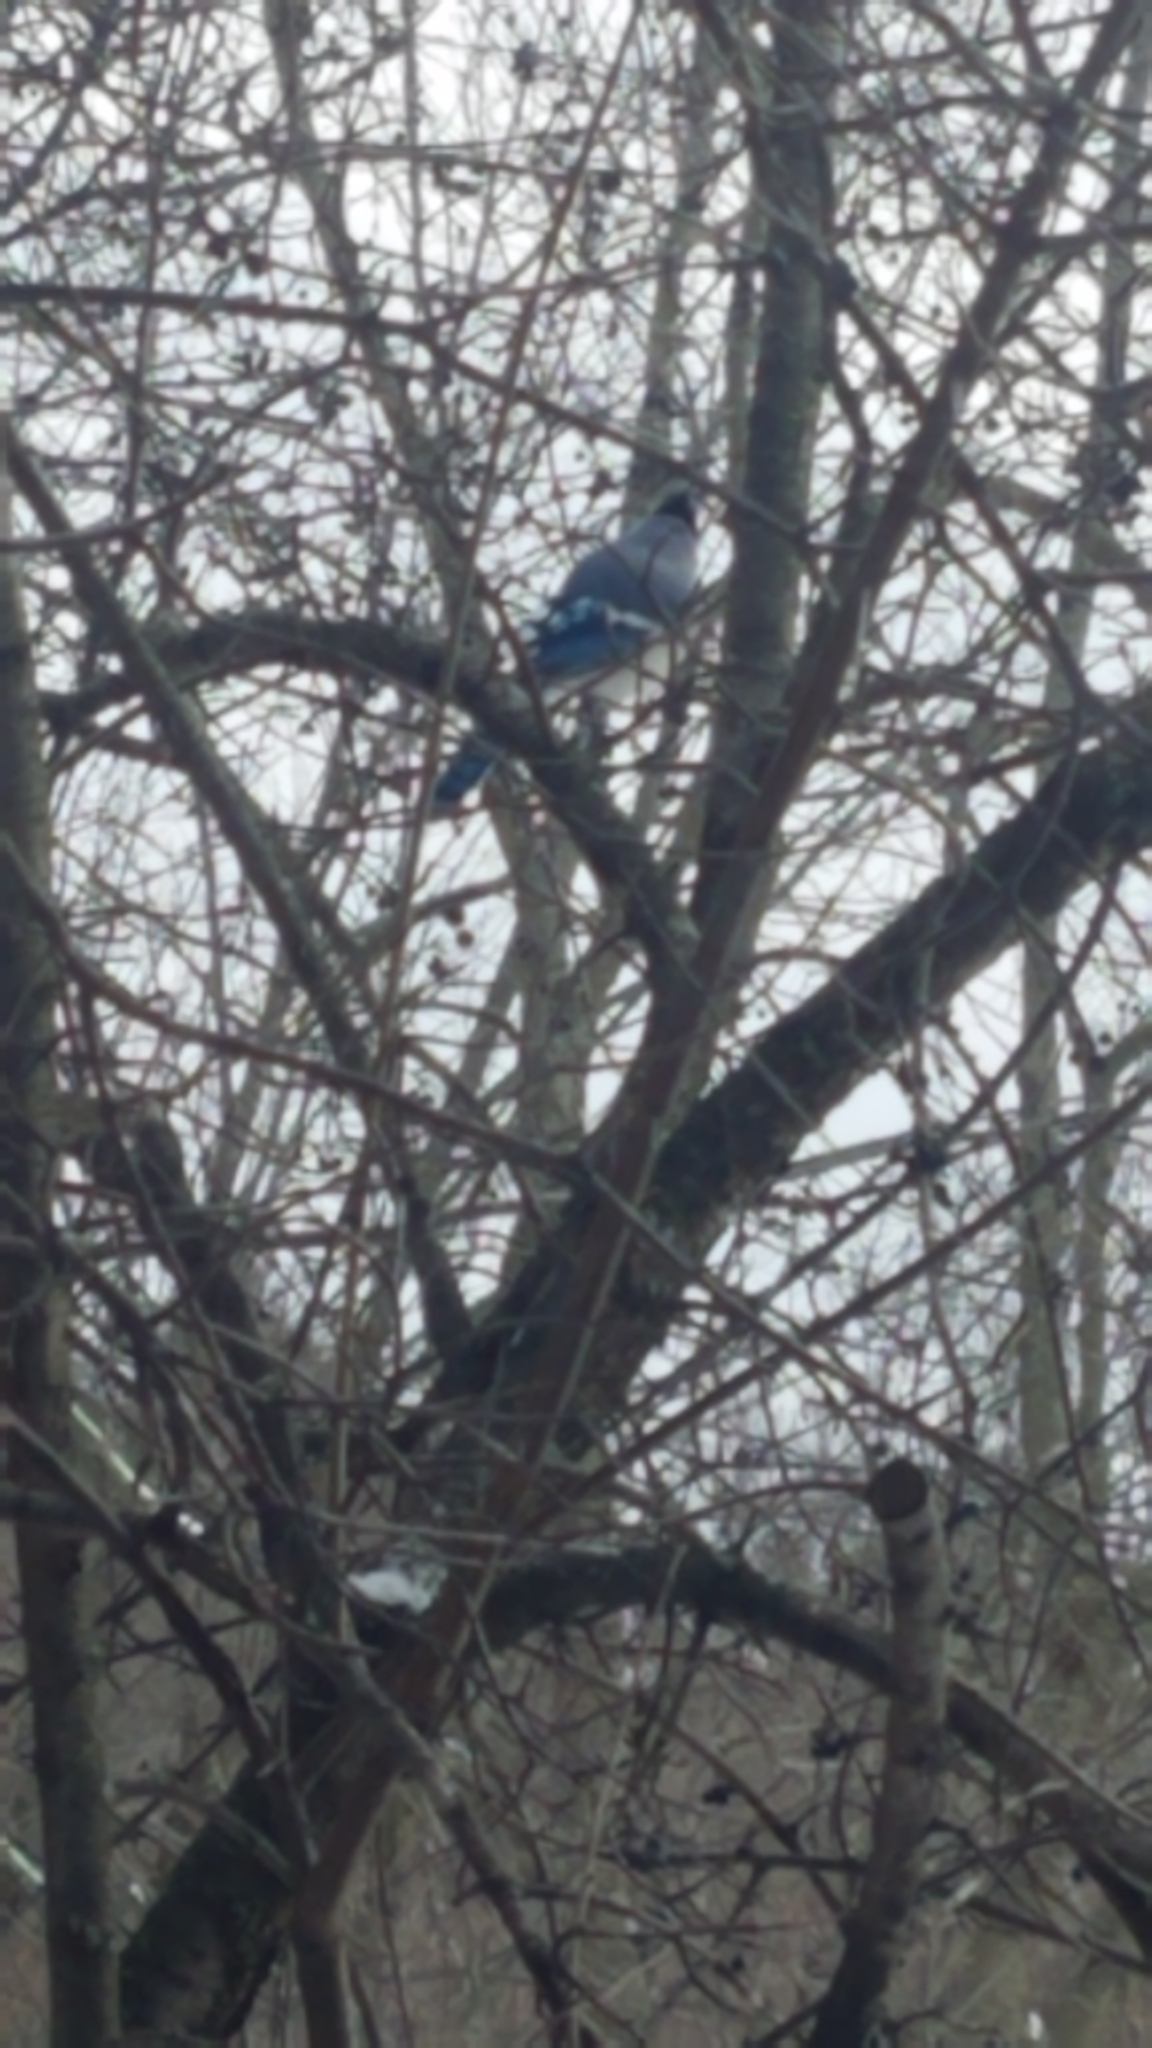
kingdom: Animalia
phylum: Chordata
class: Aves
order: Passeriformes
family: Corvidae
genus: Cyanocitta
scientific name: Cyanocitta cristata
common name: Blue jay
